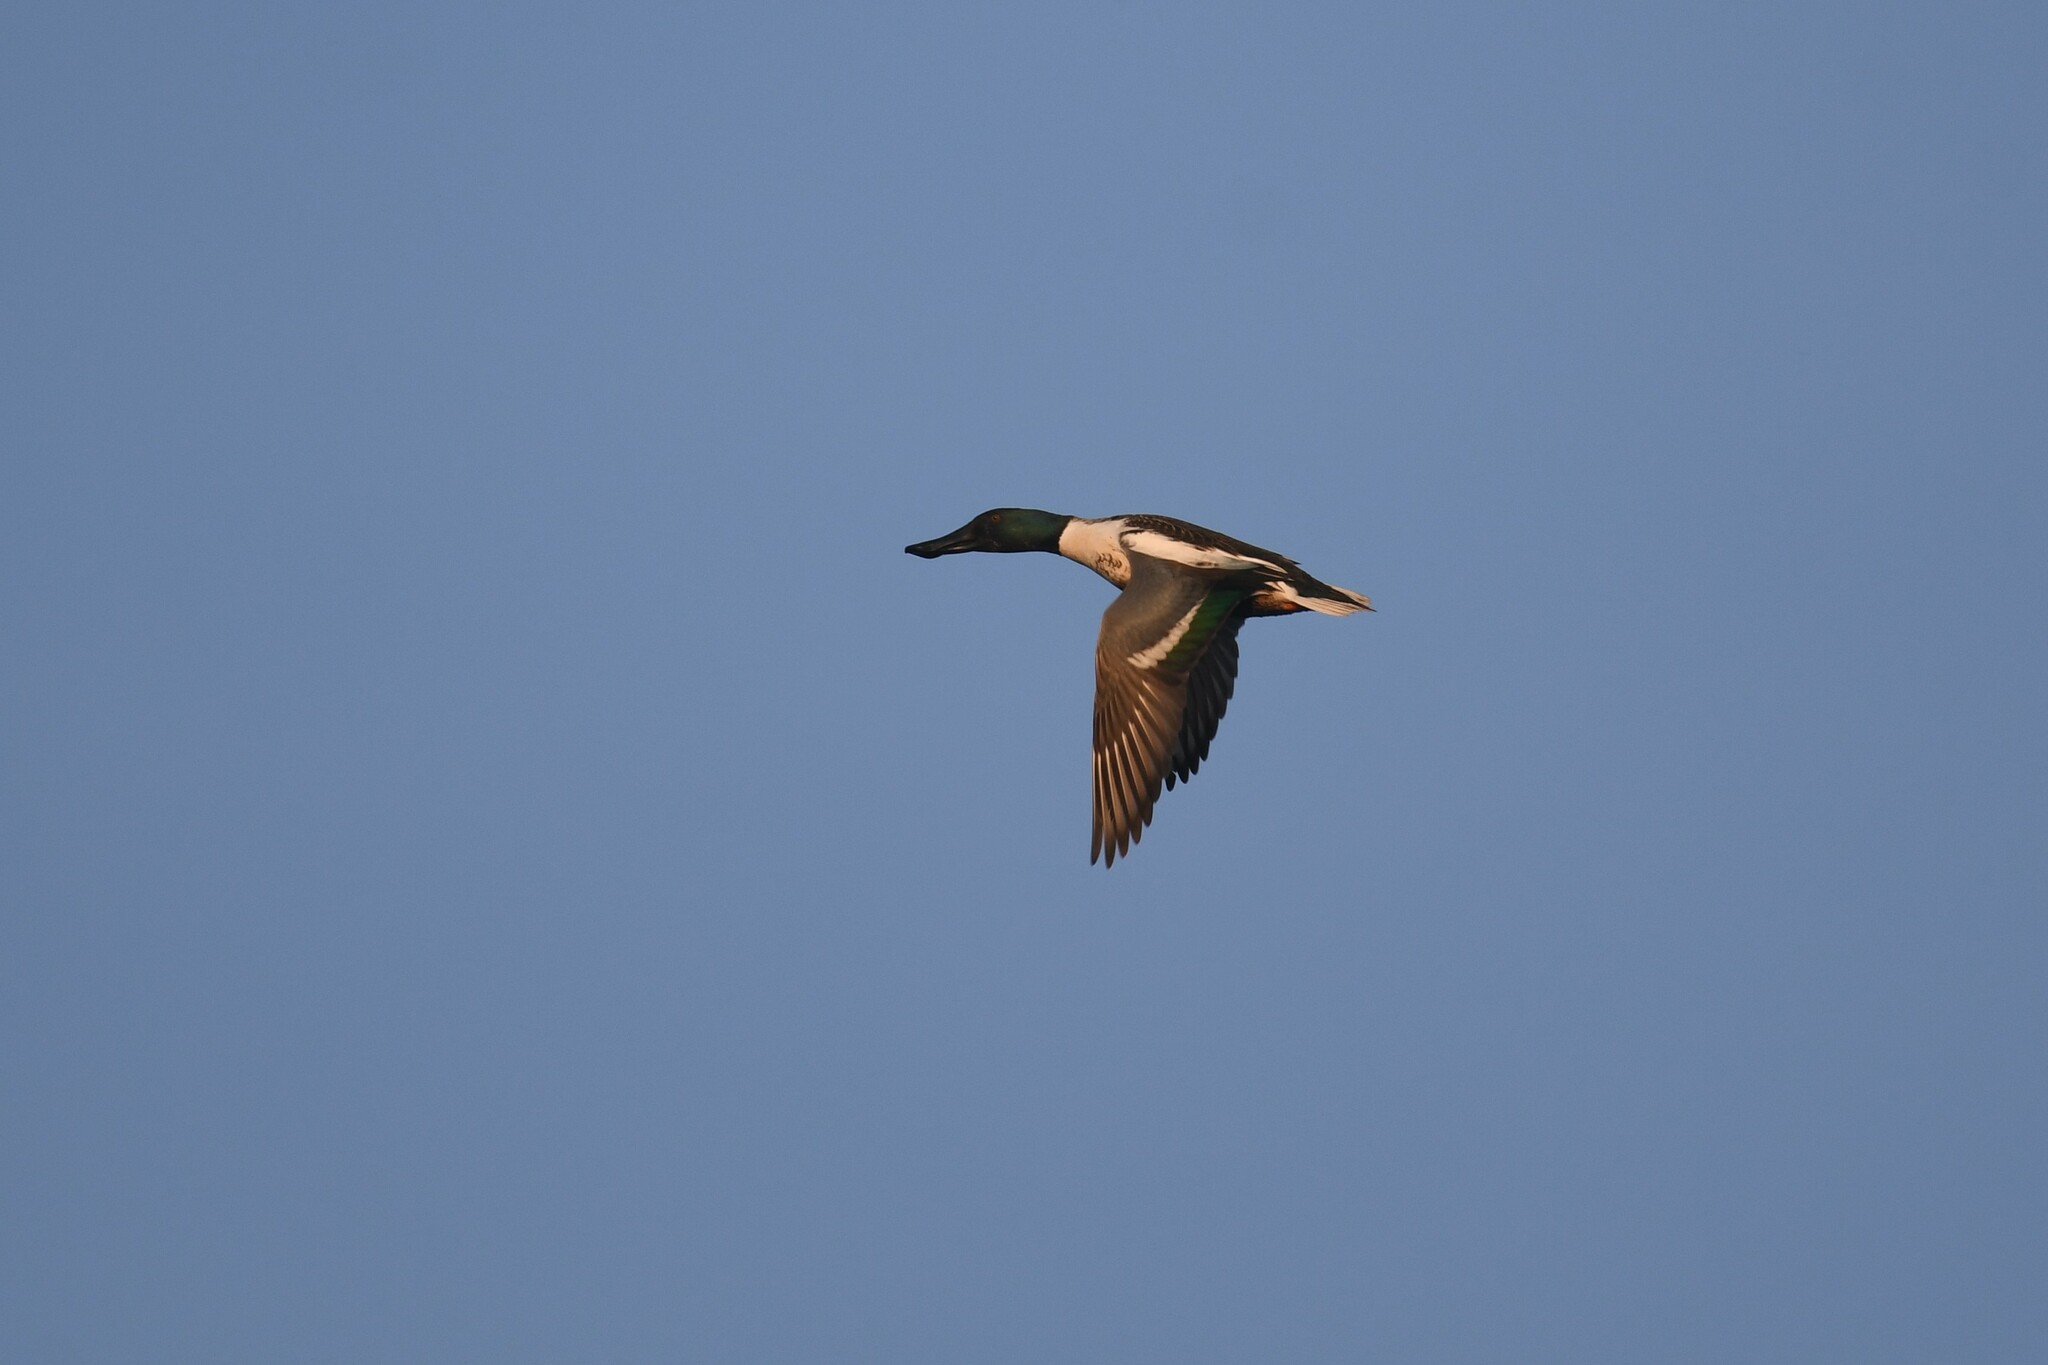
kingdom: Animalia
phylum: Chordata
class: Aves
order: Anseriformes
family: Anatidae
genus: Spatula
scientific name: Spatula clypeata
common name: Northern shoveler
